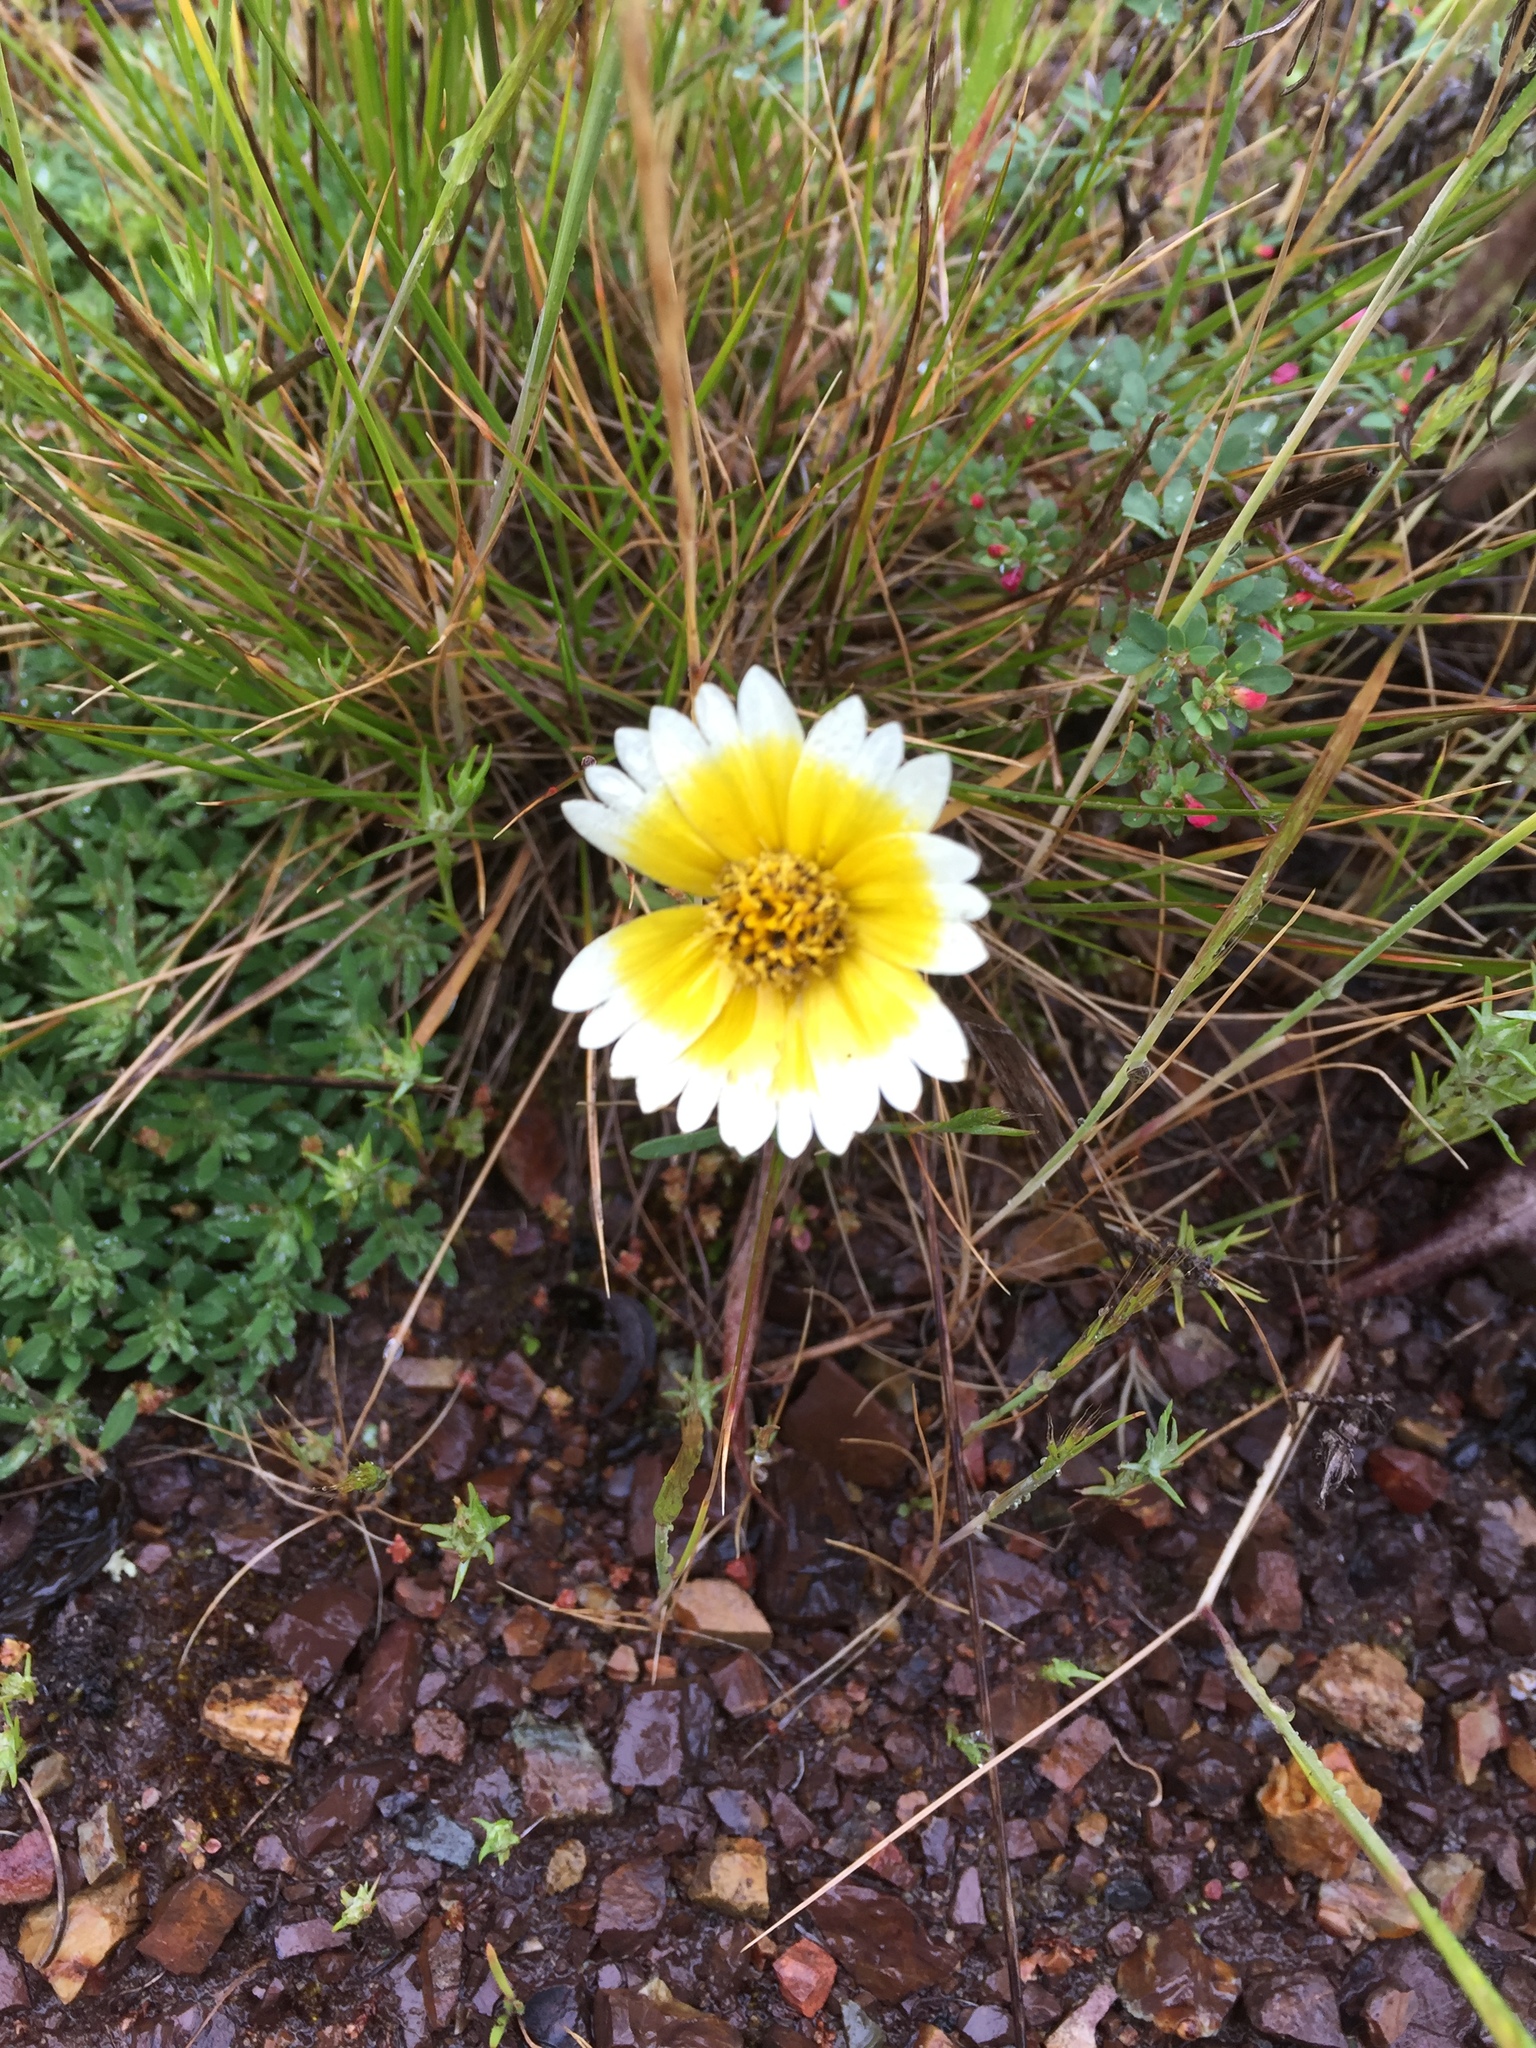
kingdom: Plantae
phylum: Tracheophyta
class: Magnoliopsida
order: Asterales
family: Asteraceae
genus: Layia
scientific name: Layia platyglossa
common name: Tidy-tips
